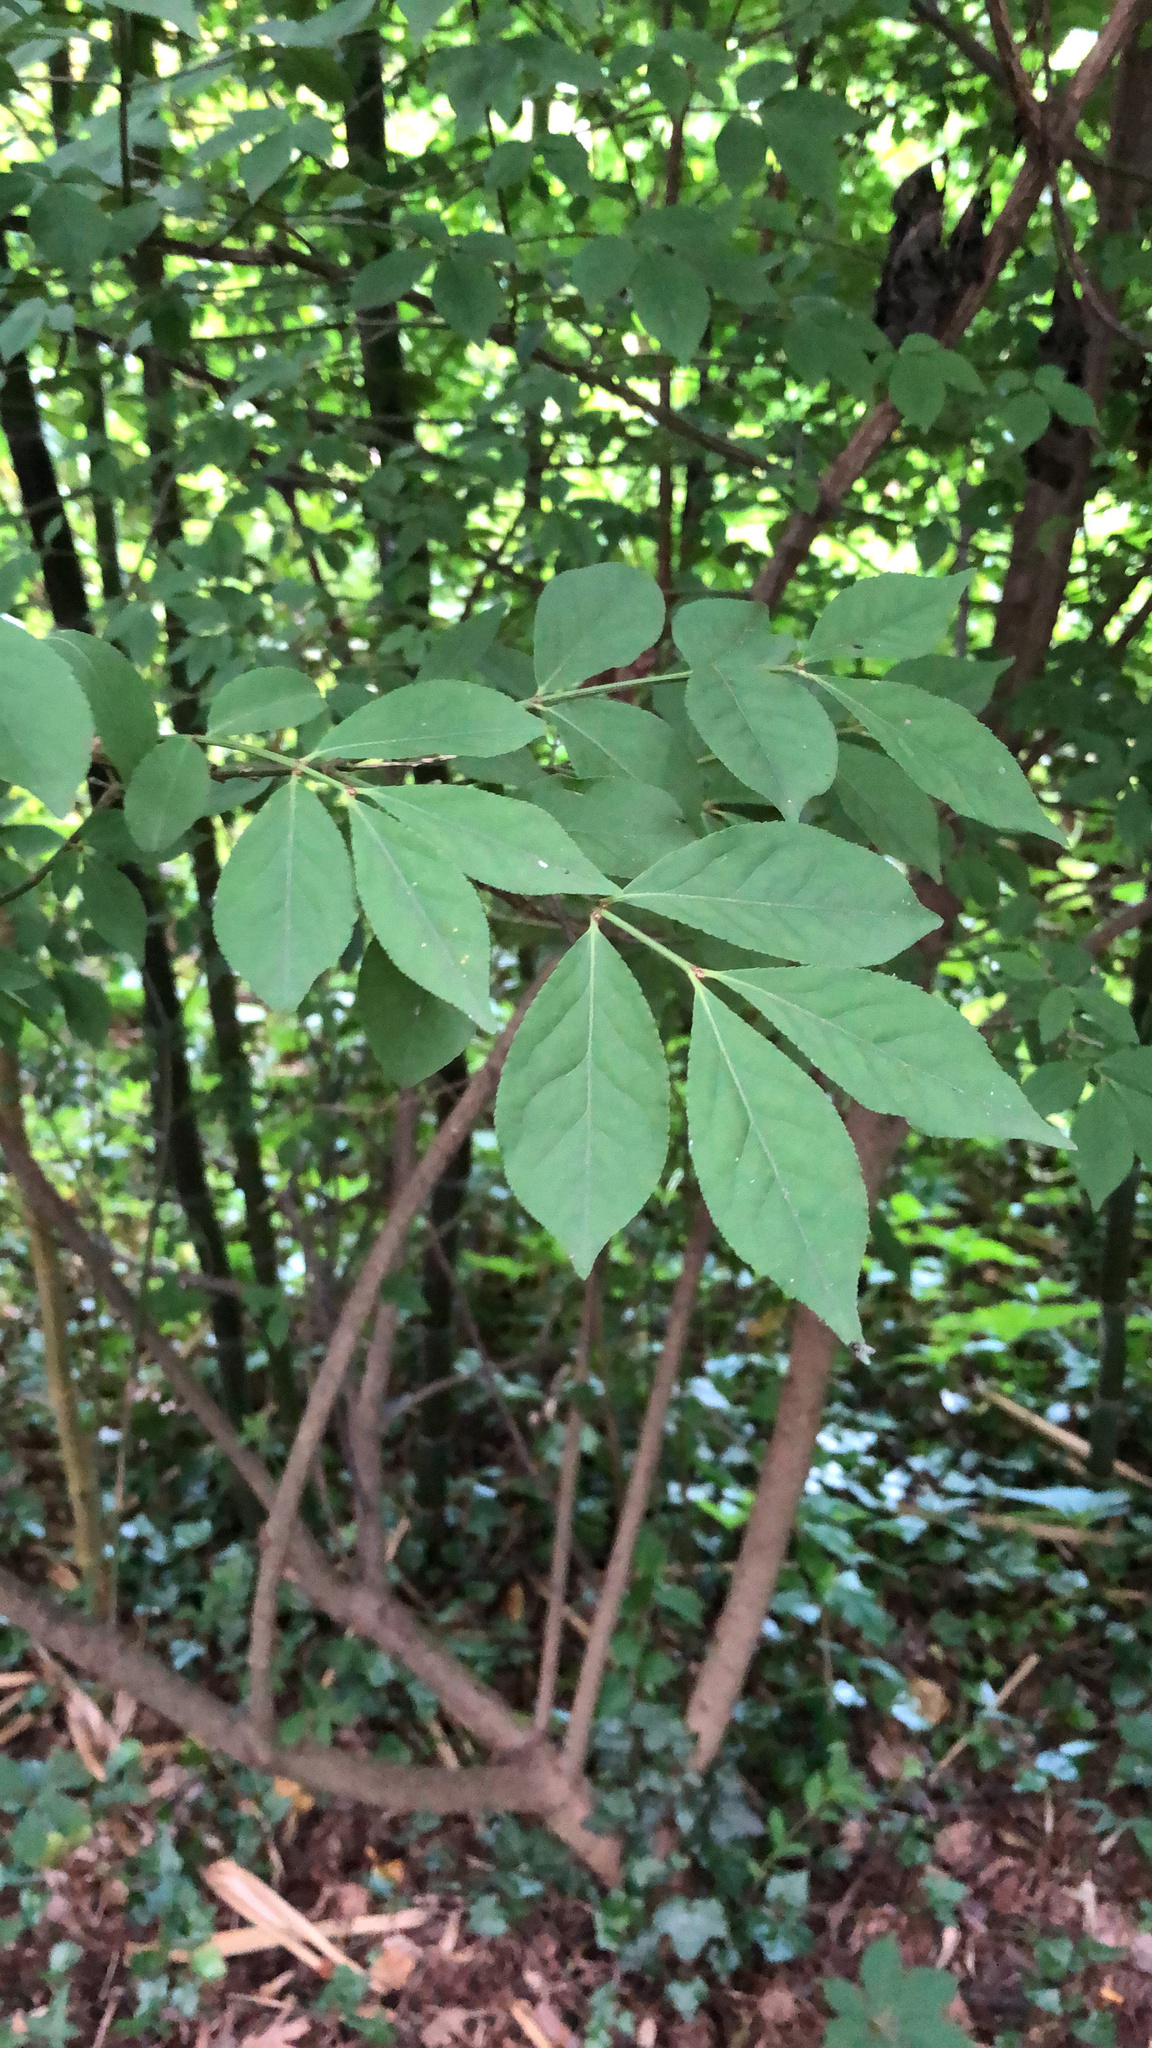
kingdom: Plantae
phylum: Tracheophyta
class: Magnoliopsida
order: Celastrales
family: Celastraceae
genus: Euonymus
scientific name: Euonymus alatus
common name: Winged euonymus
